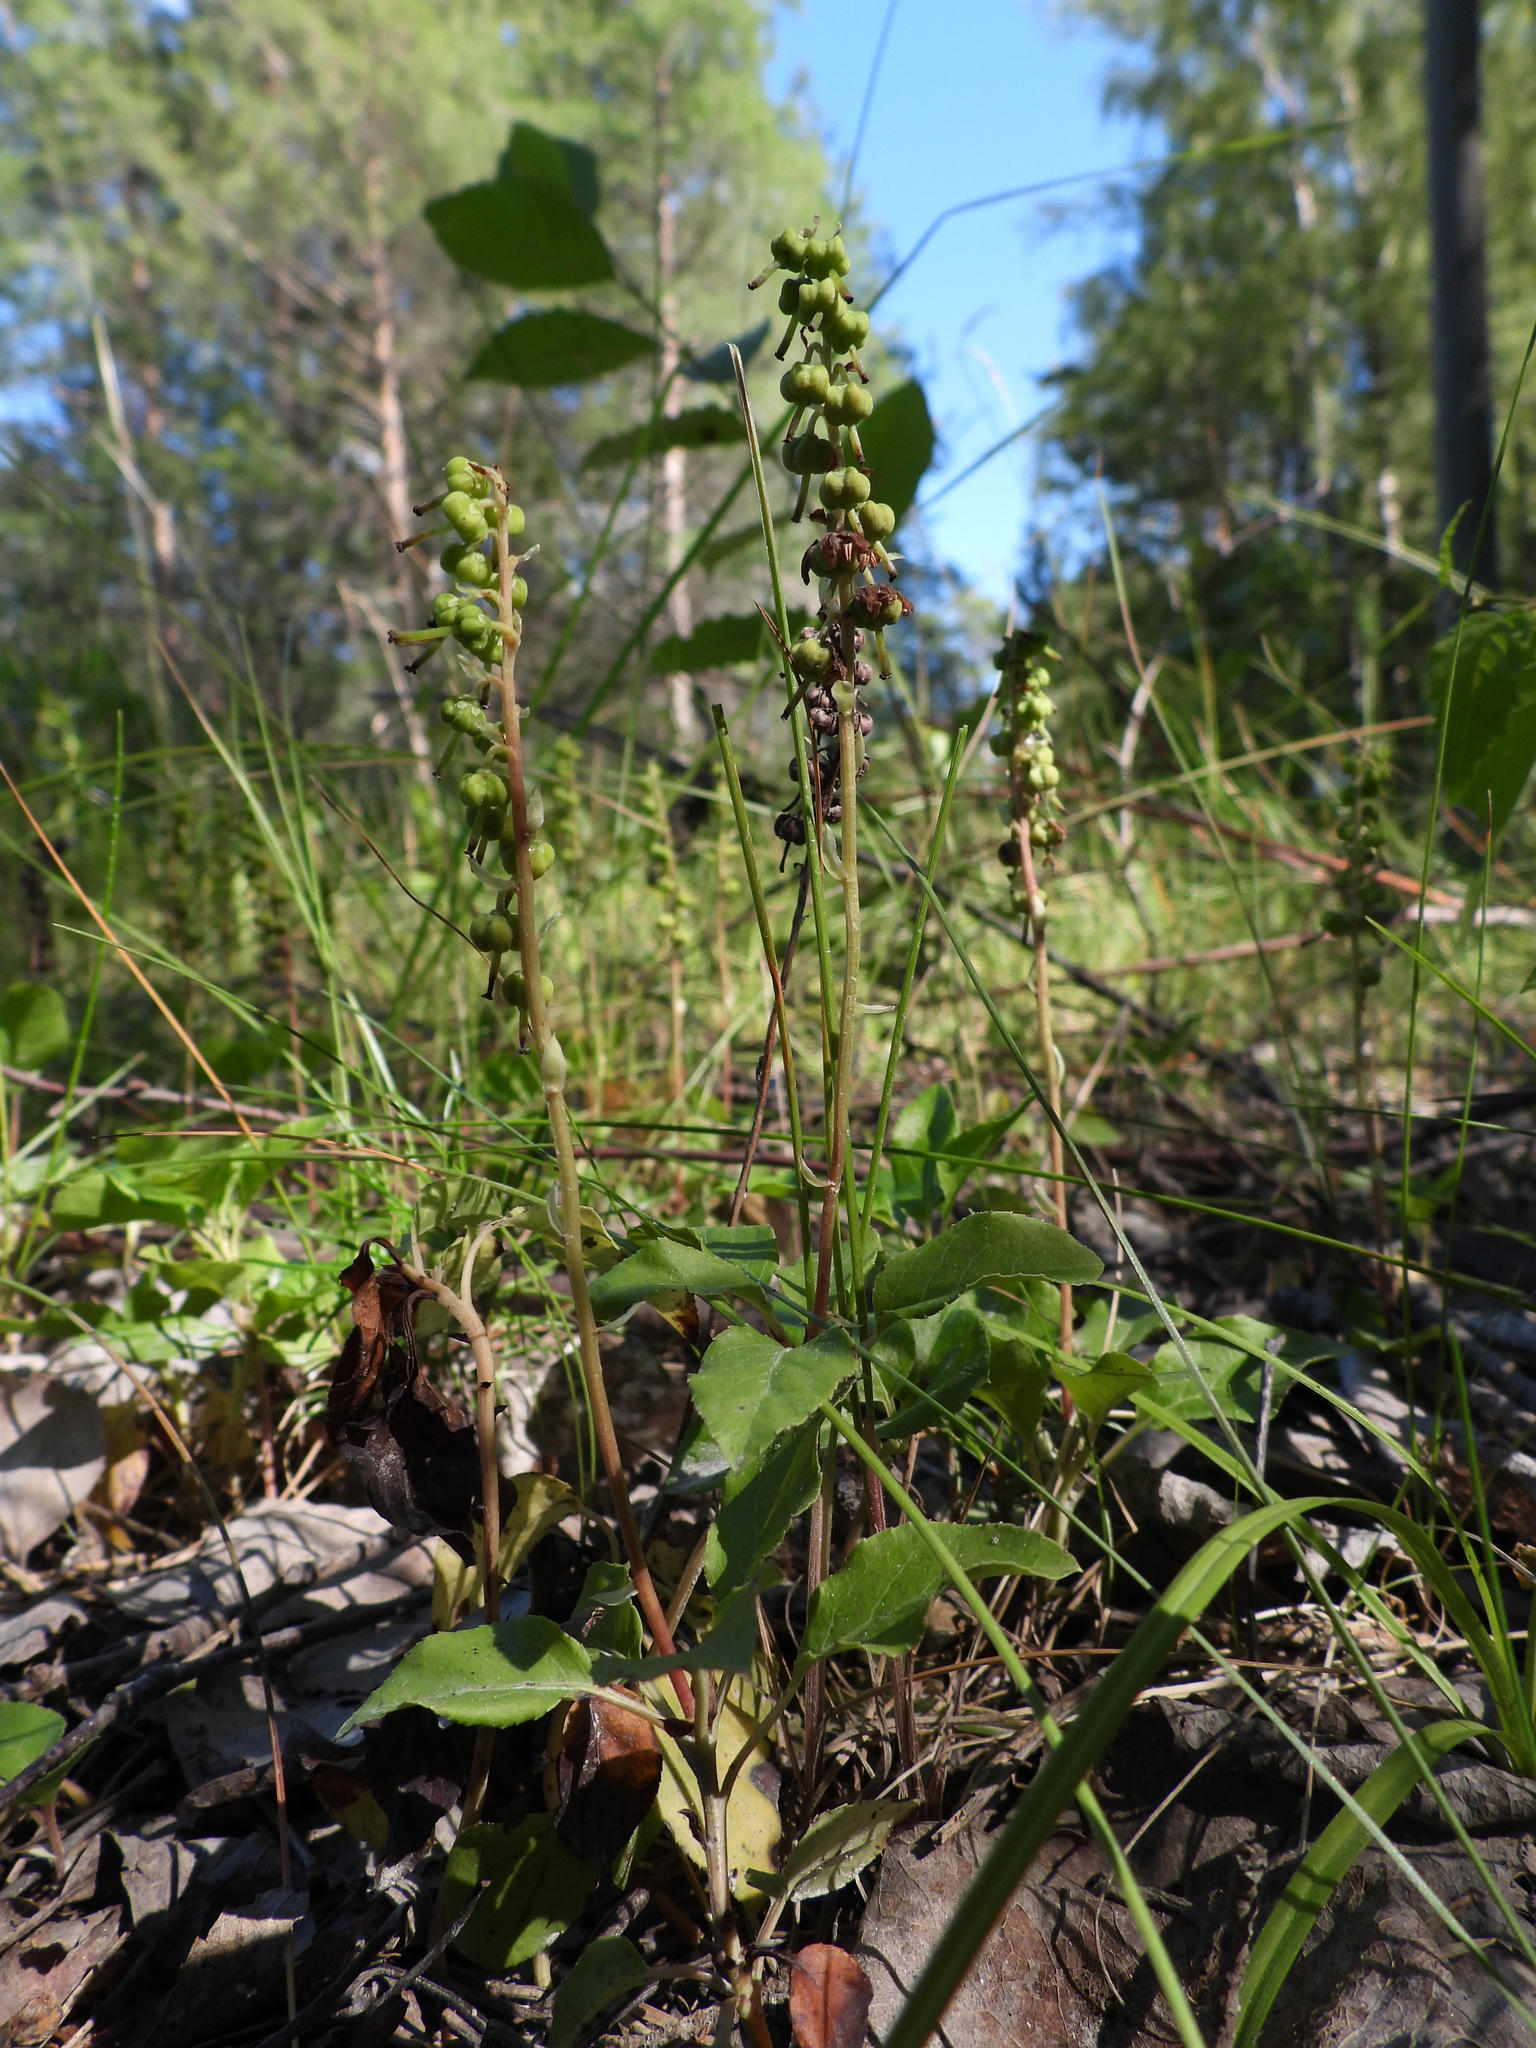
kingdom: Plantae
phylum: Tracheophyta
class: Magnoliopsida
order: Ericales
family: Ericaceae
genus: Orthilia
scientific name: Orthilia secunda
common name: One-sided orthilia
